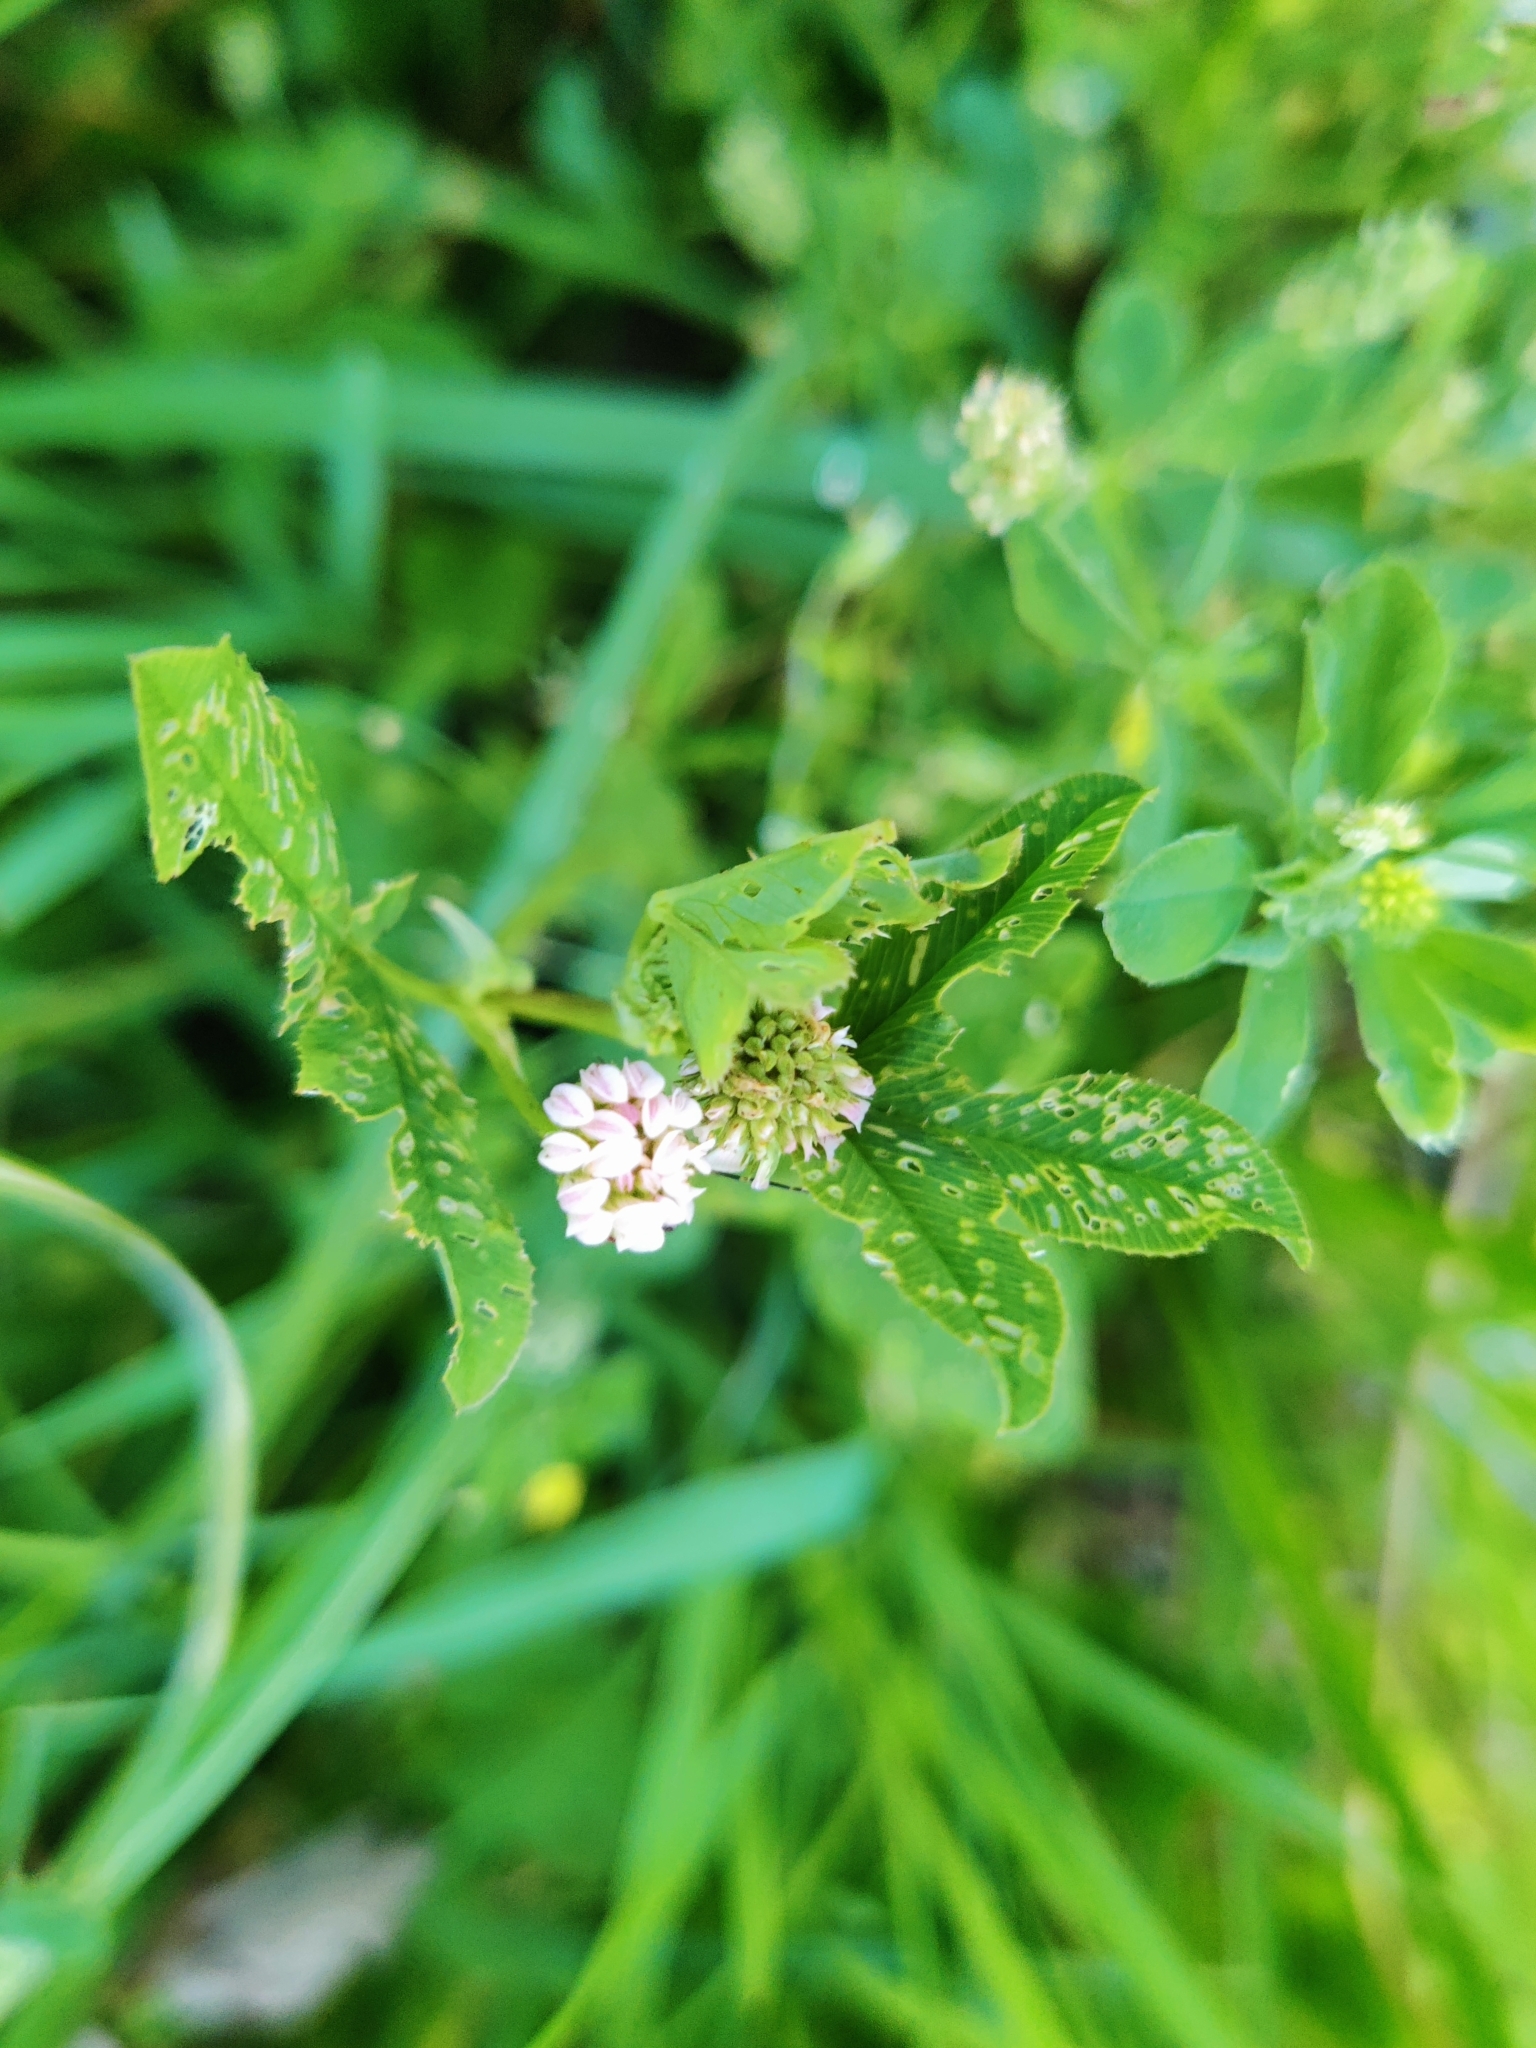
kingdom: Plantae
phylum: Tracheophyta
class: Magnoliopsida
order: Fabales
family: Fabaceae
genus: Trifolium
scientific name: Trifolium hybridum
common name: Alsike clover
